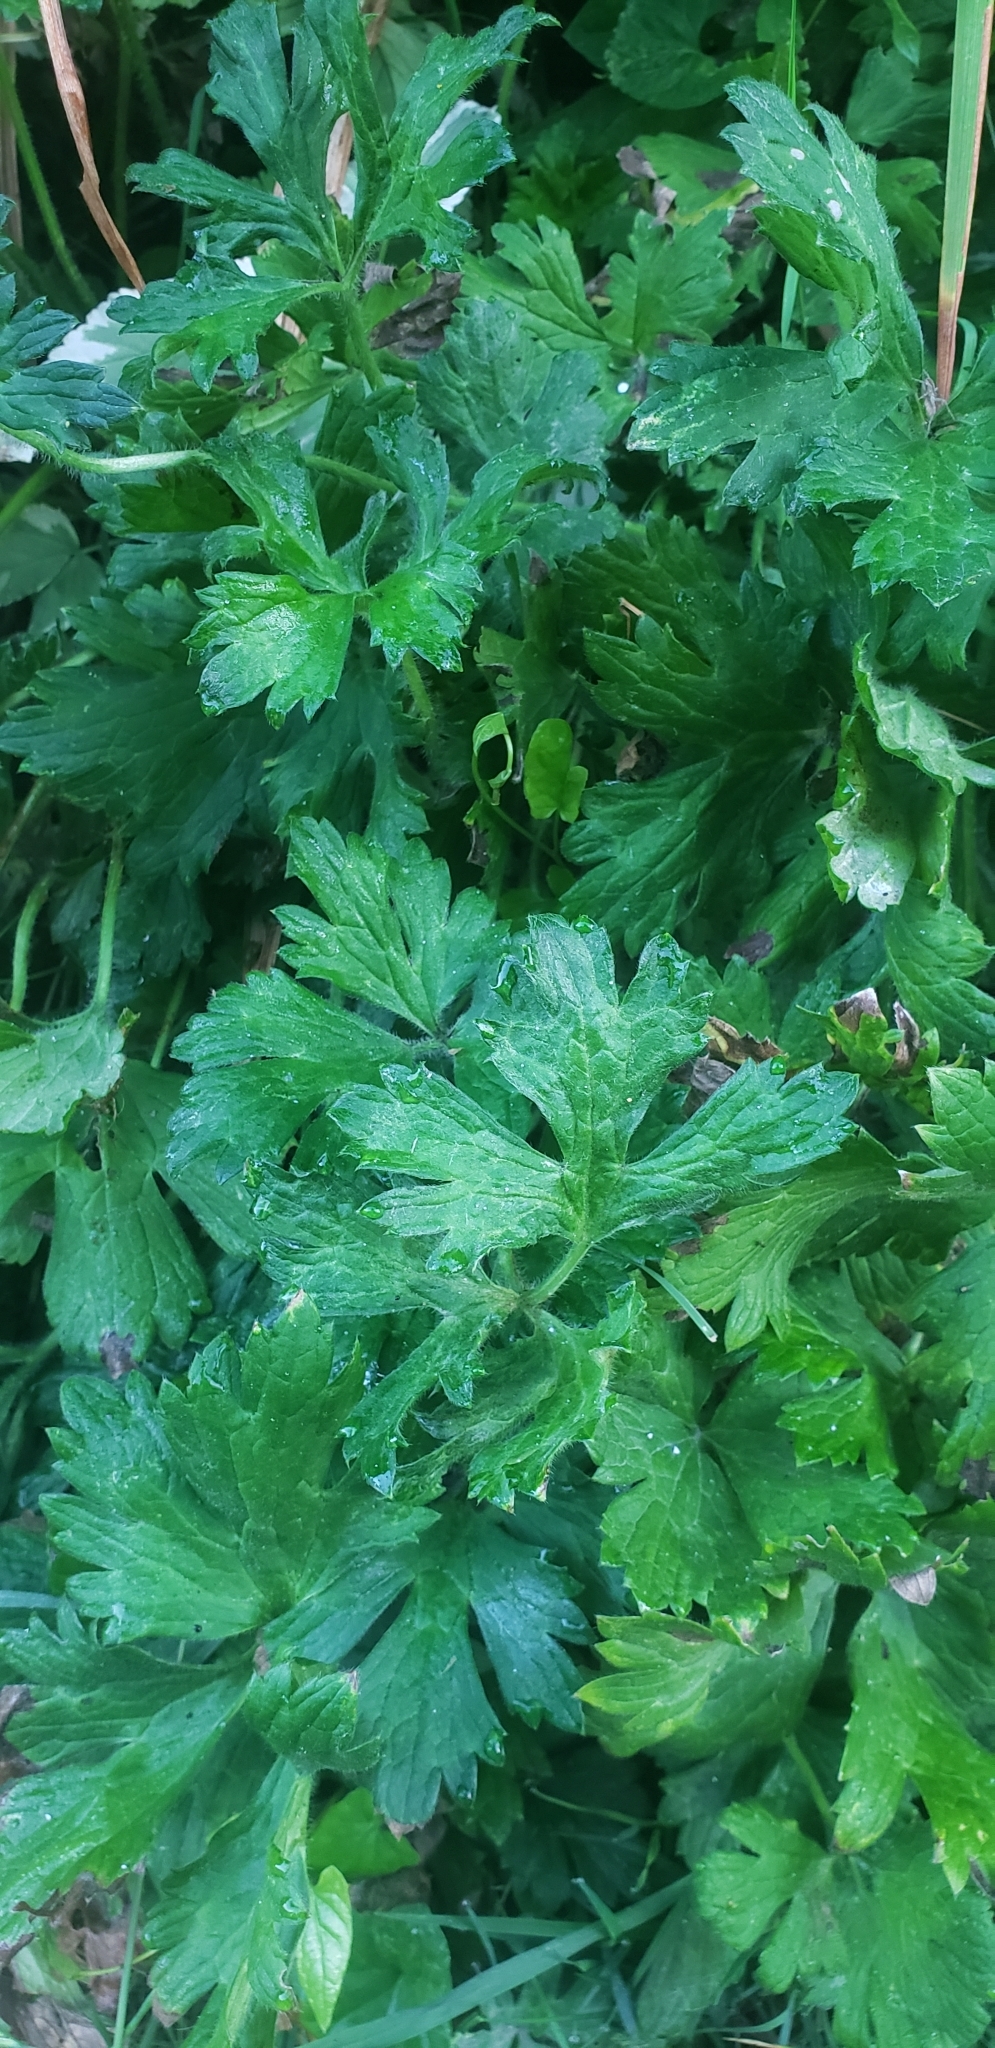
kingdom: Plantae
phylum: Tracheophyta
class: Magnoliopsida
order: Ranunculales
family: Ranunculaceae
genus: Ranunculus
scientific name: Ranunculus repens
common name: Creeping buttercup
